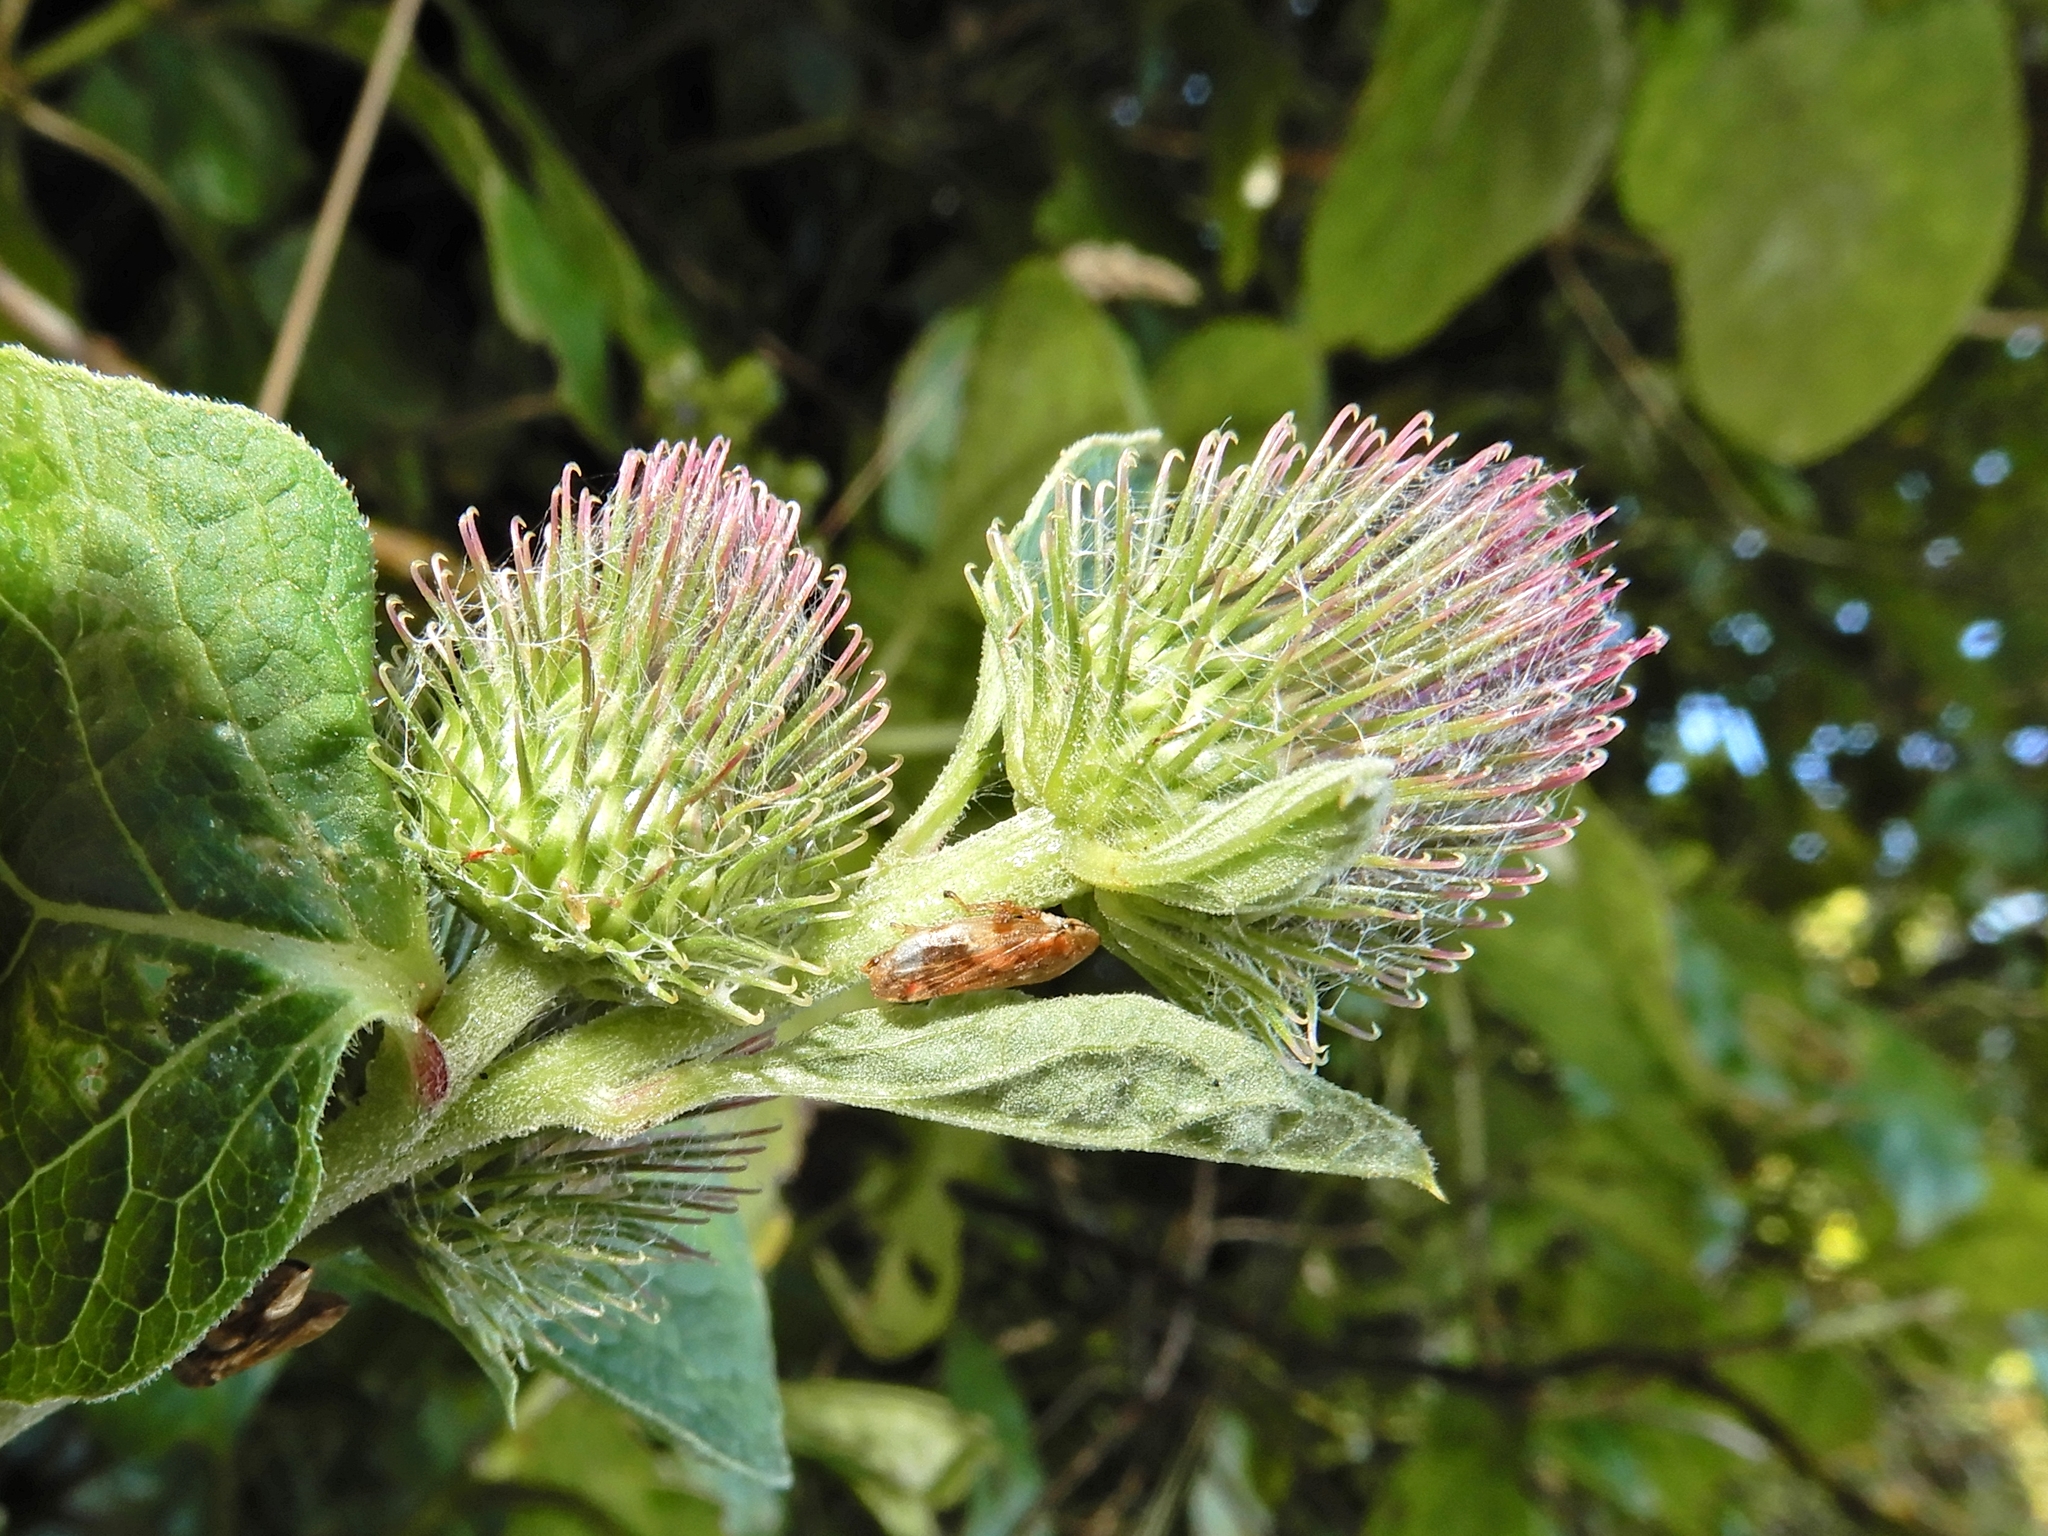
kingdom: Plantae
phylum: Tracheophyta
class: Magnoliopsida
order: Asterales
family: Asteraceae
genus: Arctium
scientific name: Arctium minus
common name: Lesser burdock
